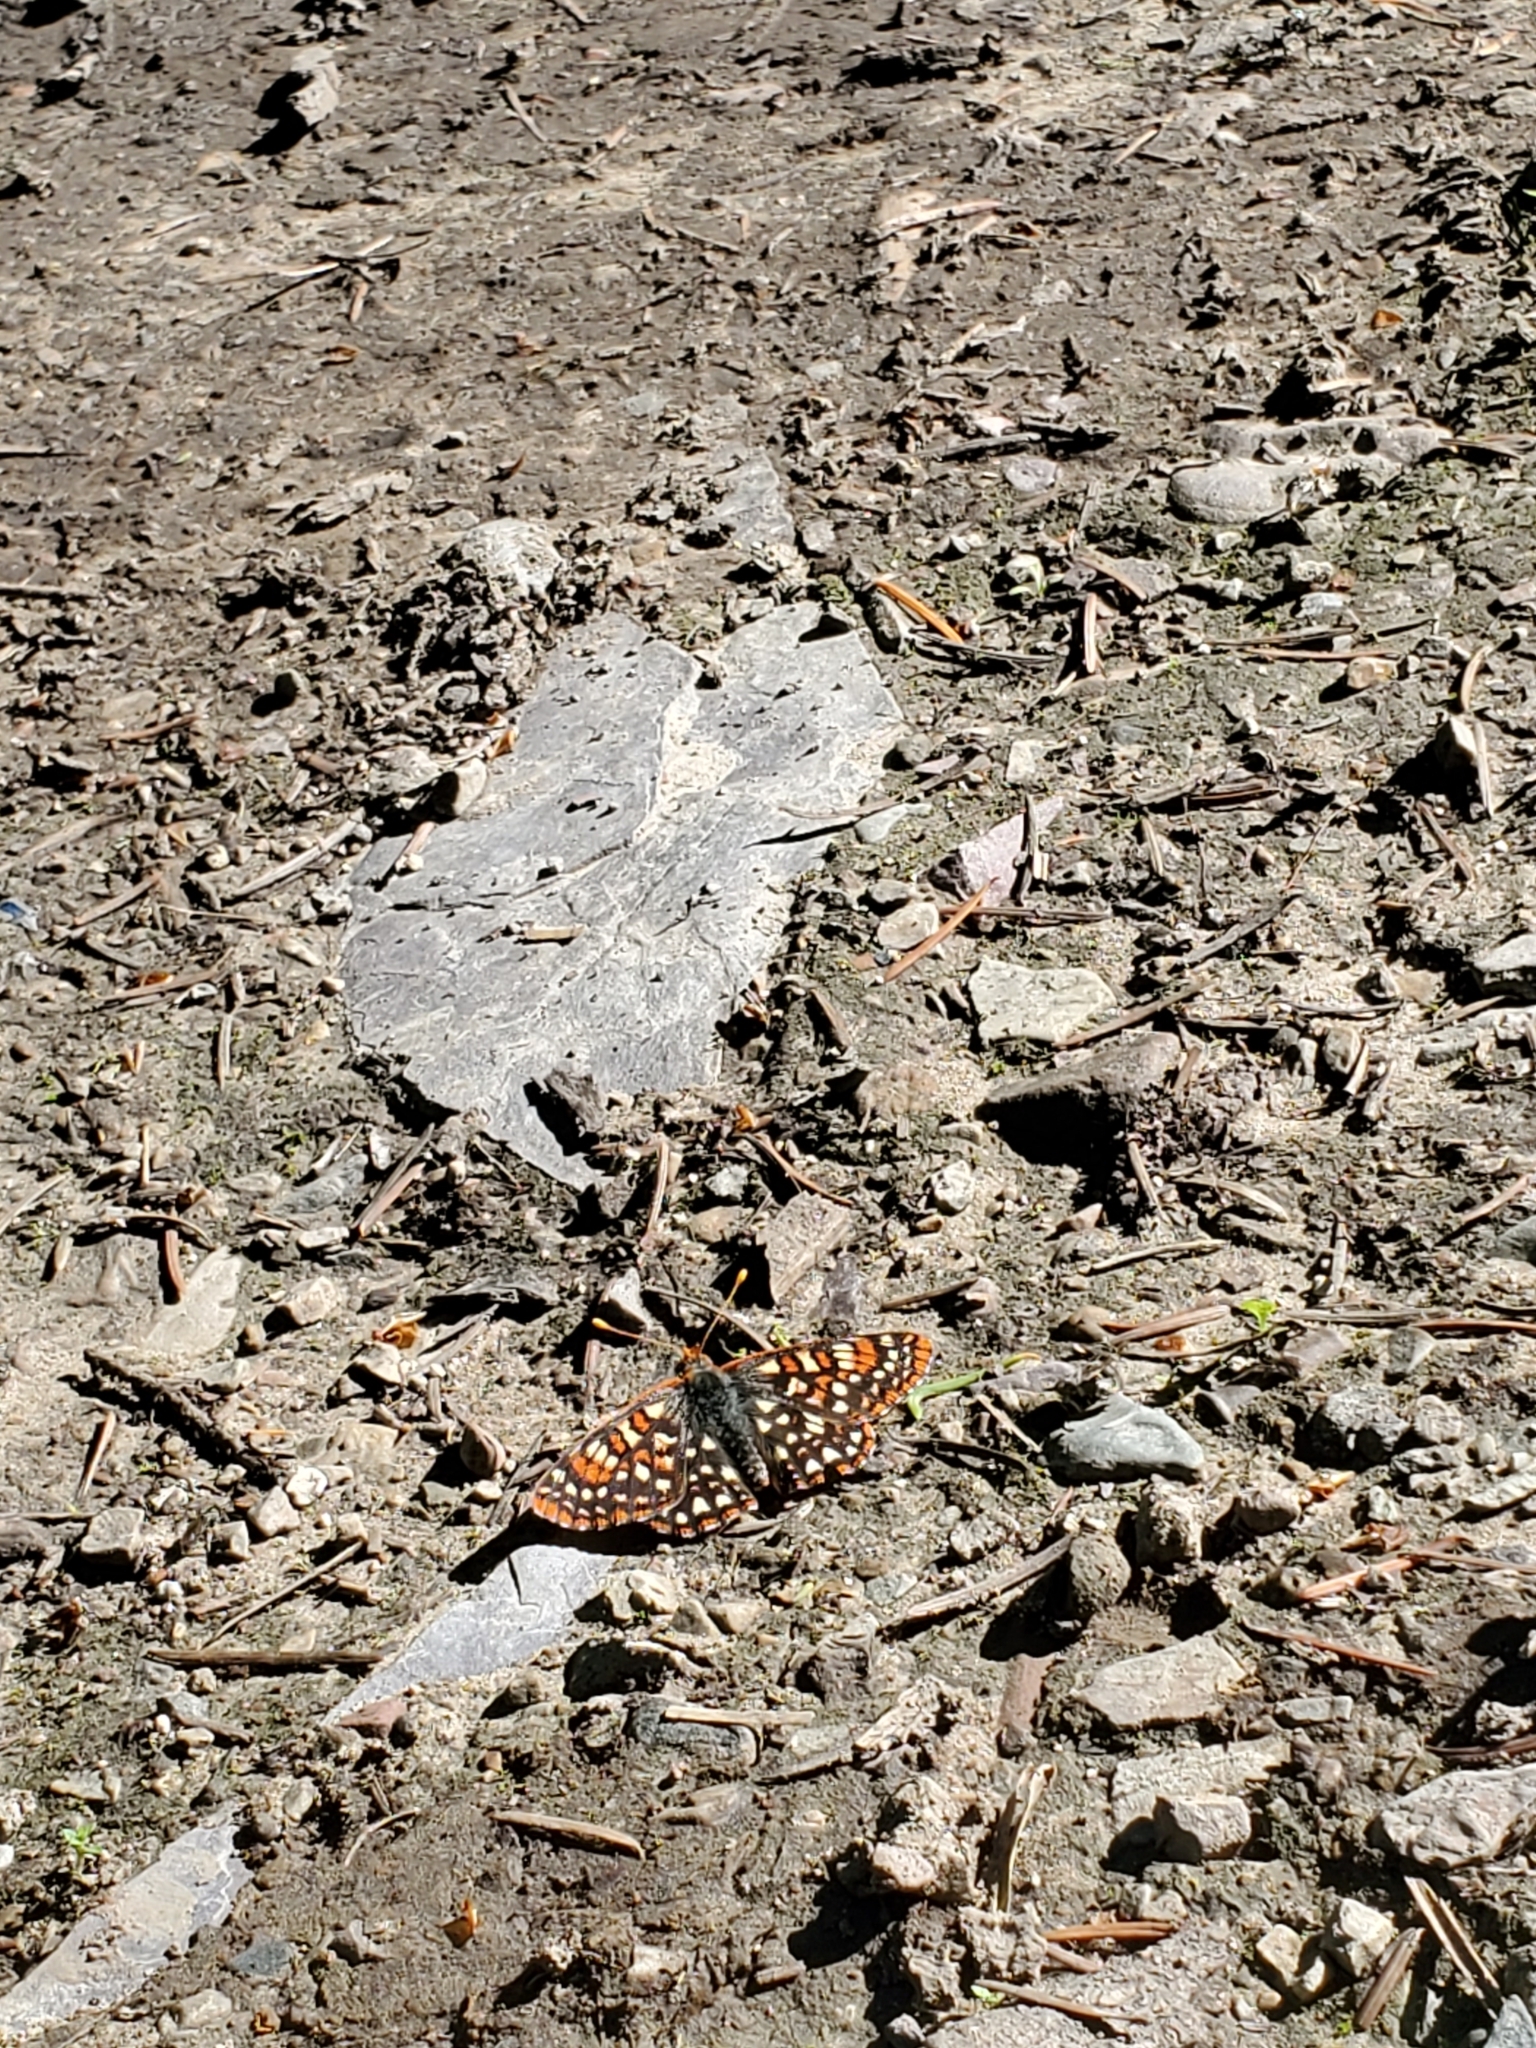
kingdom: Animalia
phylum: Arthropoda
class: Insecta
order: Lepidoptera
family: Nymphalidae
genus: Occidryas
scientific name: Occidryas anicia
